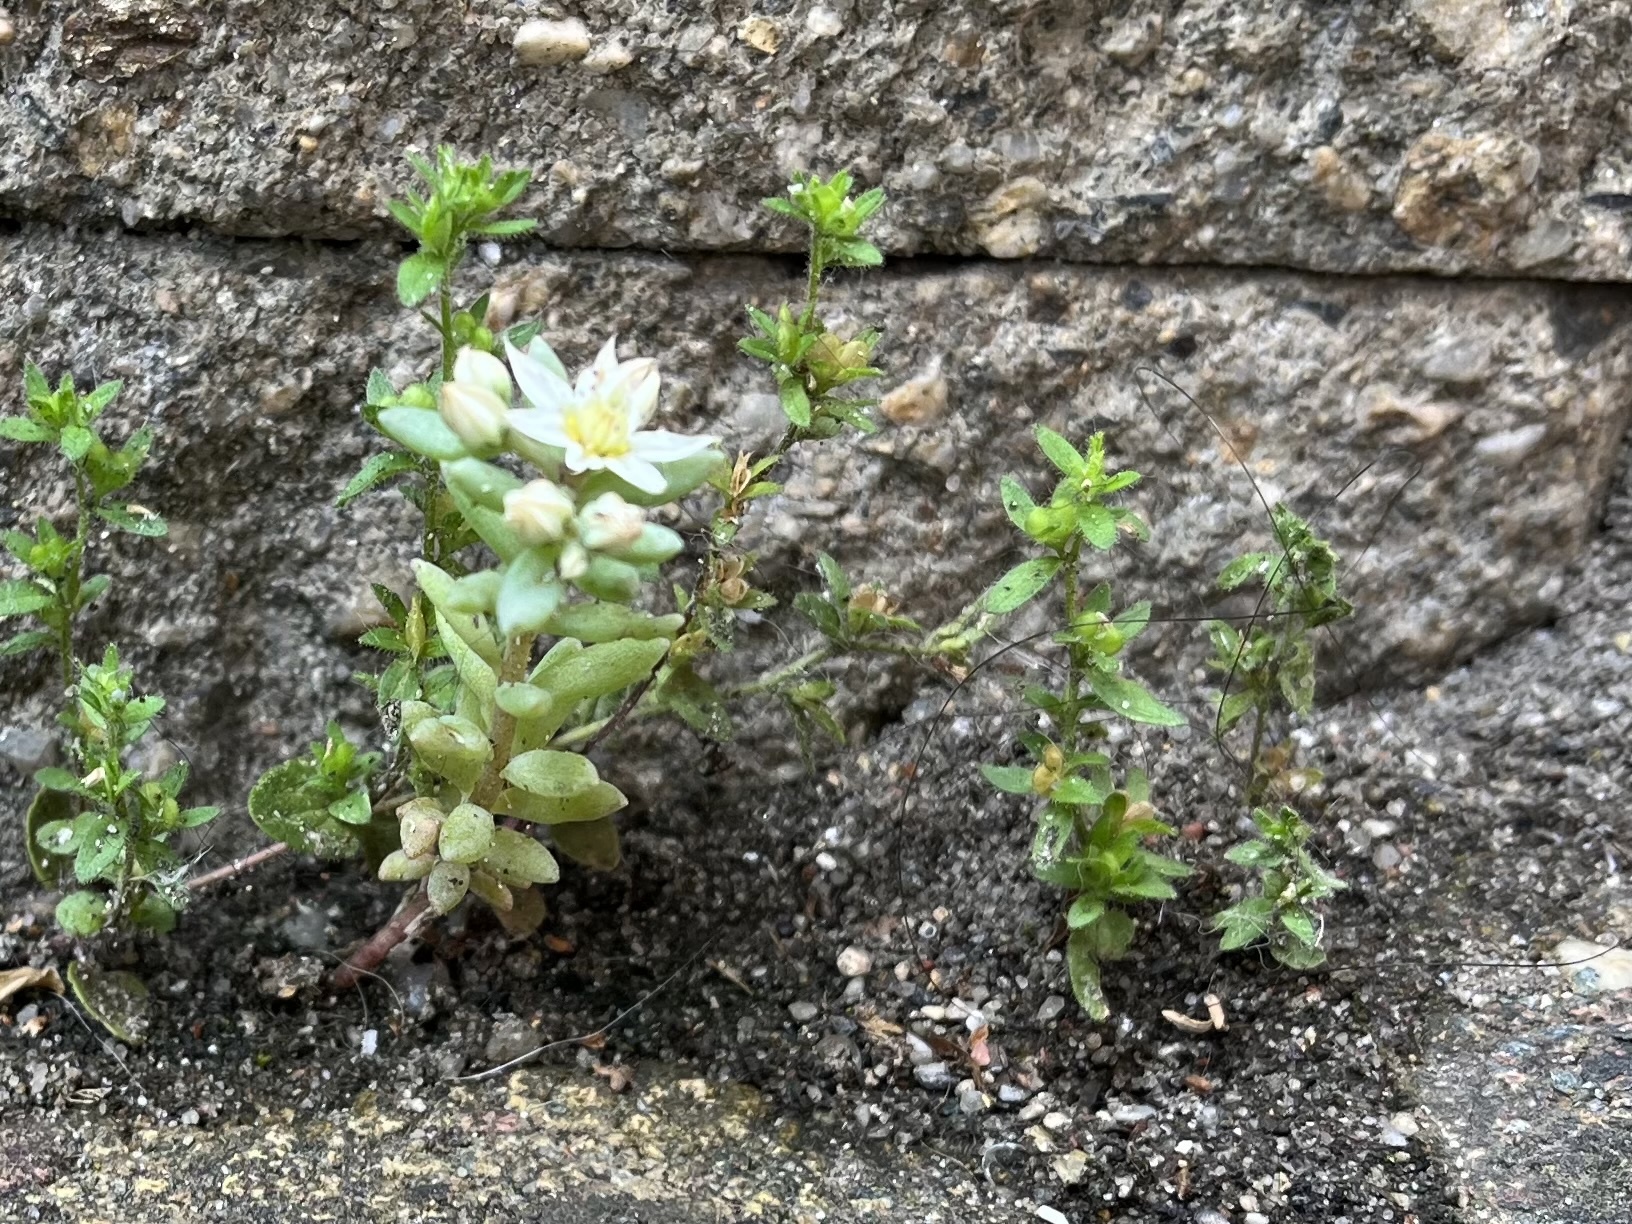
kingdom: Plantae
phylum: Tracheophyta
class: Magnoliopsida
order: Lamiales
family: Plantaginaceae
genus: Veronica
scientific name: Veronica arvensis
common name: Corn speedwell
